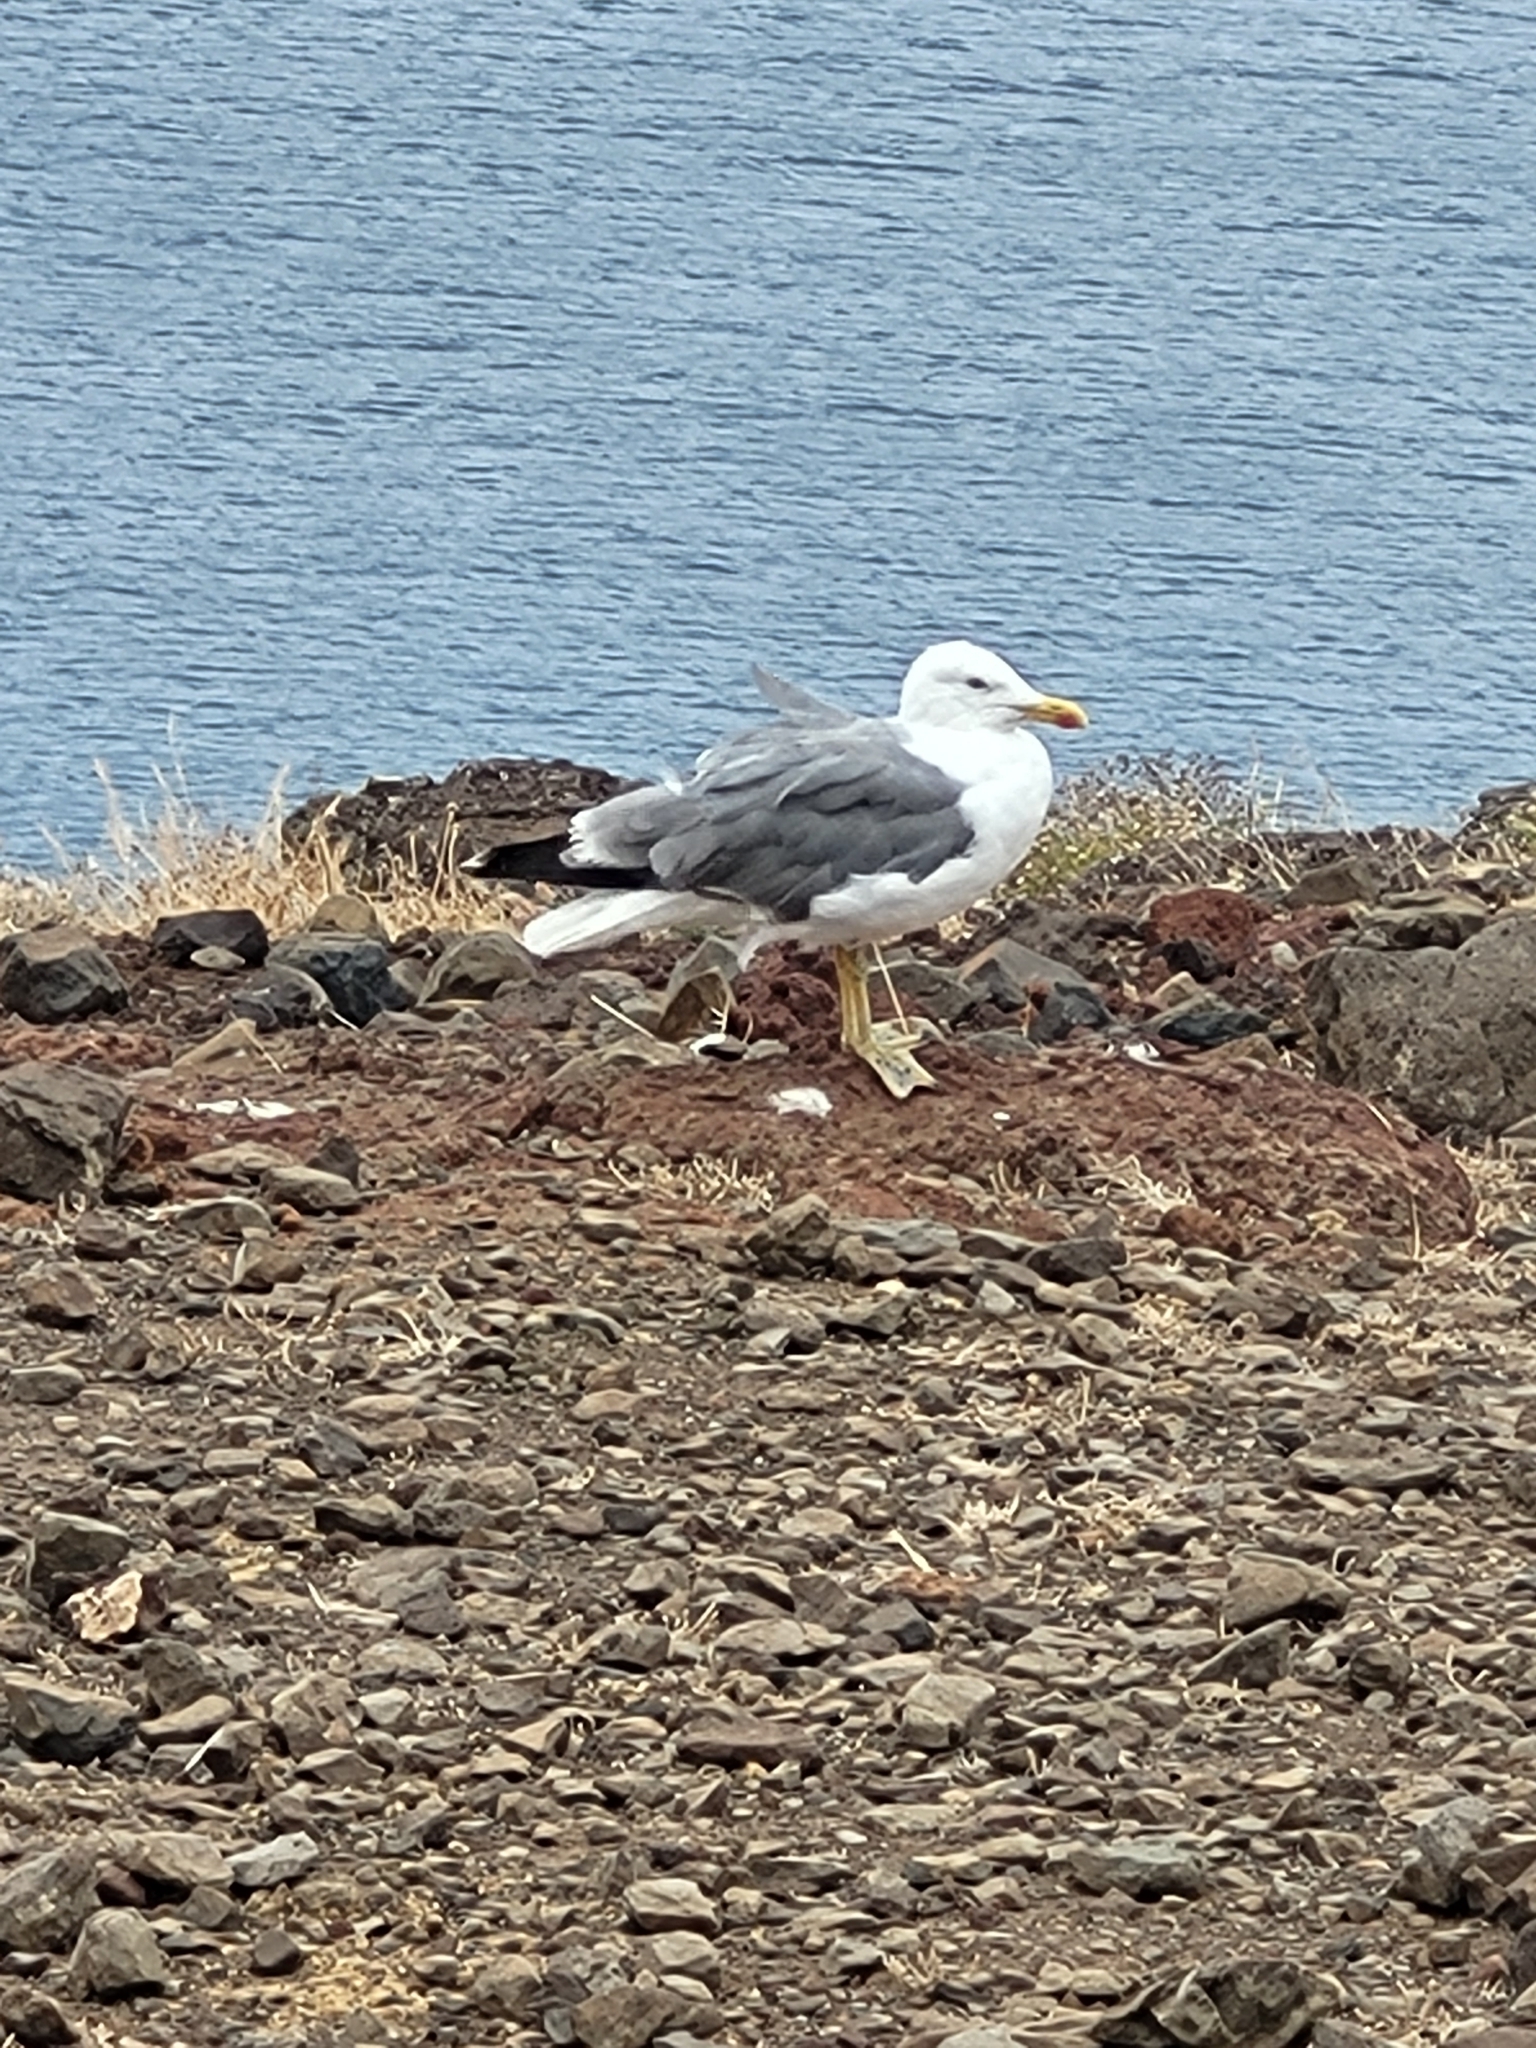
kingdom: Animalia
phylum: Chordata
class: Aves
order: Charadriiformes
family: Laridae
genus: Larus
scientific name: Larus michahellis
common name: Yellow-legged gull
